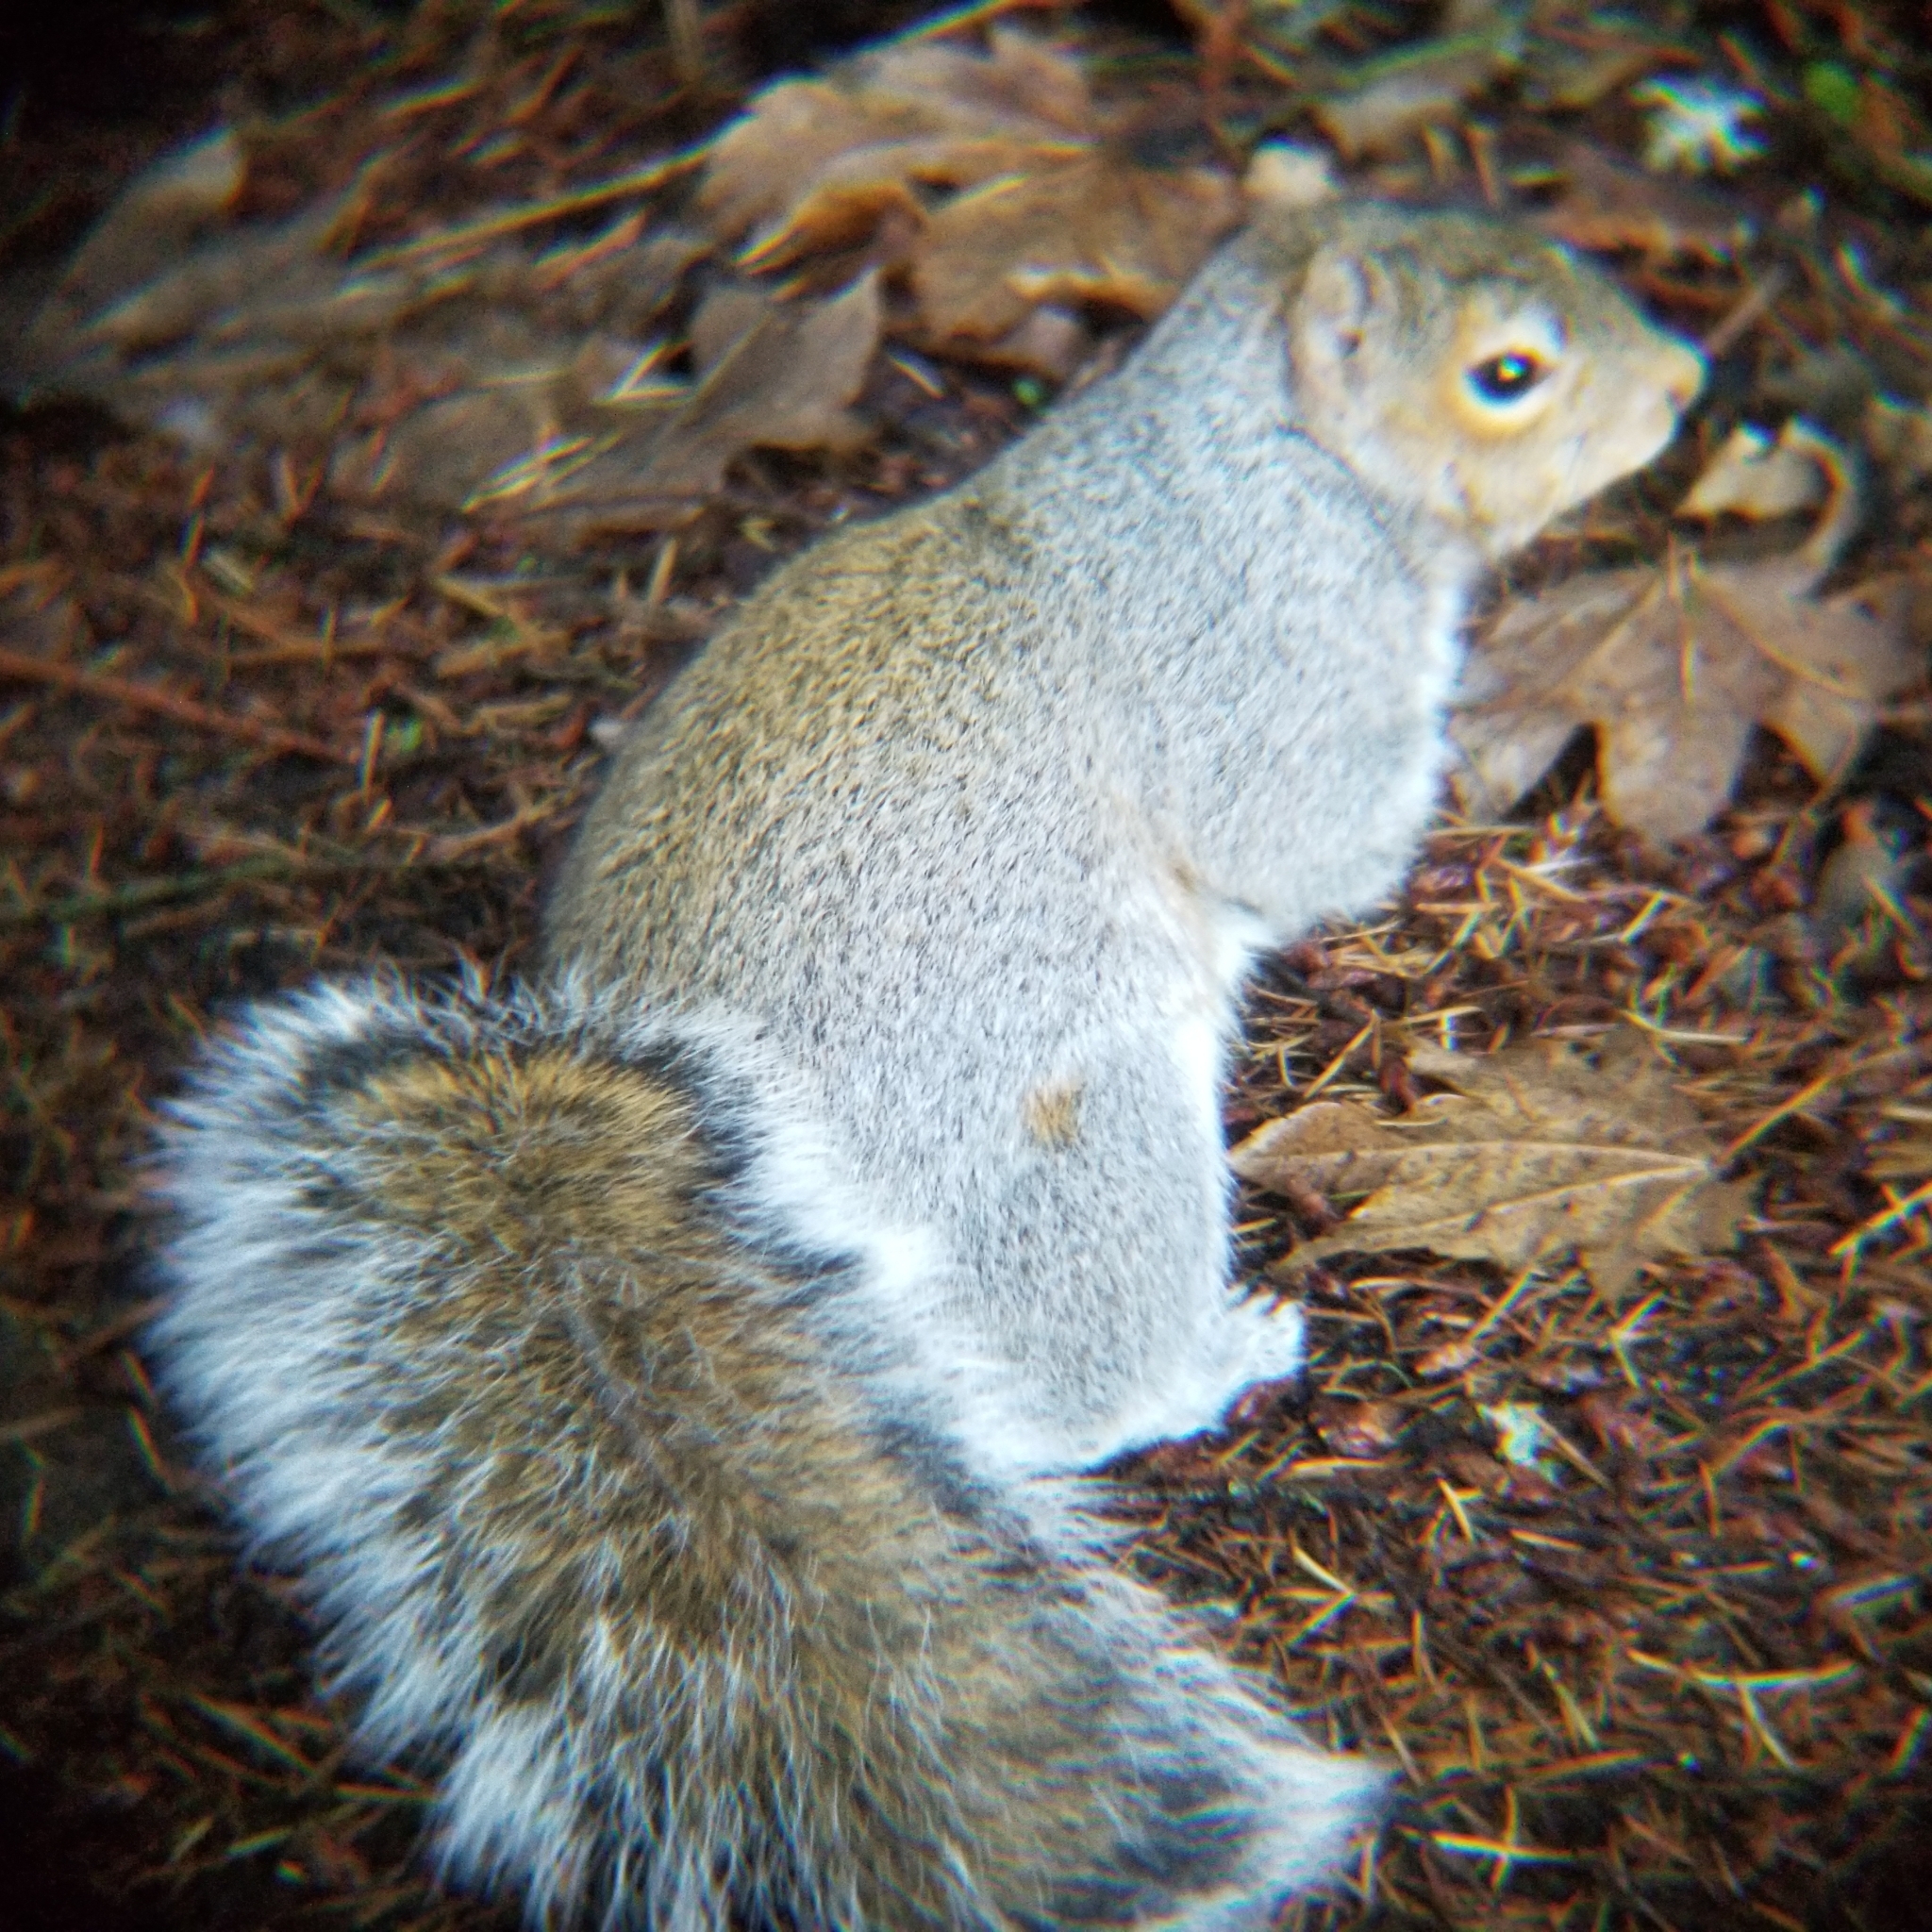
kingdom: Animalia
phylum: Chordata
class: Mammalia
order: Rodentia
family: Sciuridae
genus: Sciurus
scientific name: Sciurus carolinensis
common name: Eastern gray squirrel
